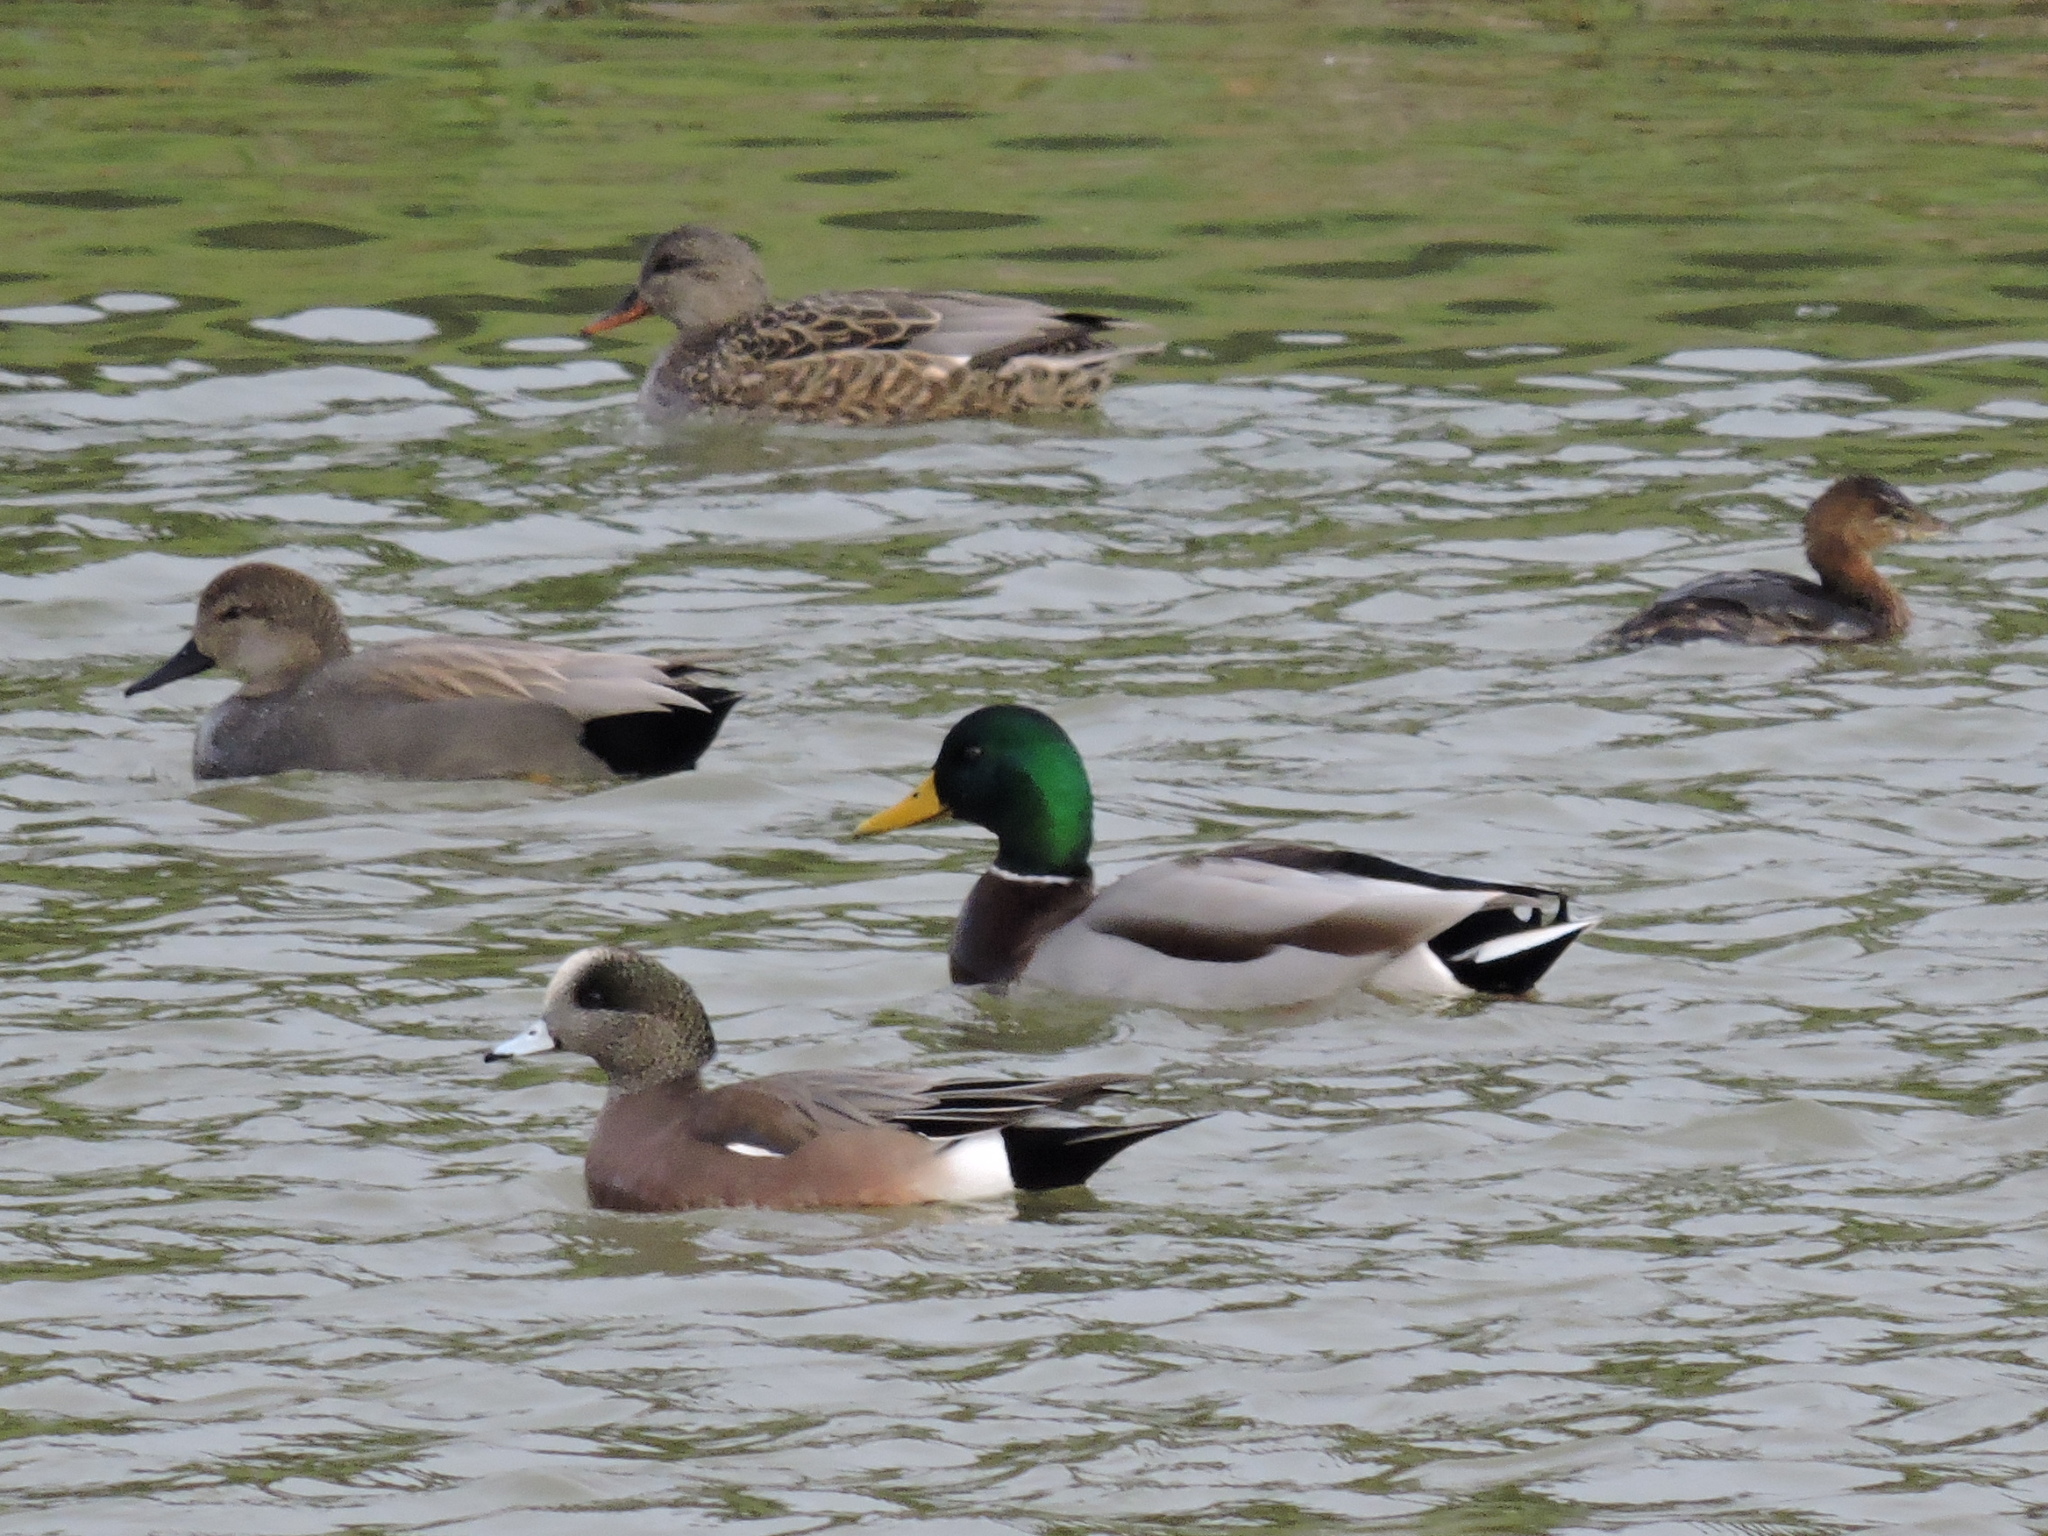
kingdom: Animalia
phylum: Chordata
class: Aves
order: Anseriformes
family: Anatidae
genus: Mareca
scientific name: Mareca strepera
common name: Gadwall
